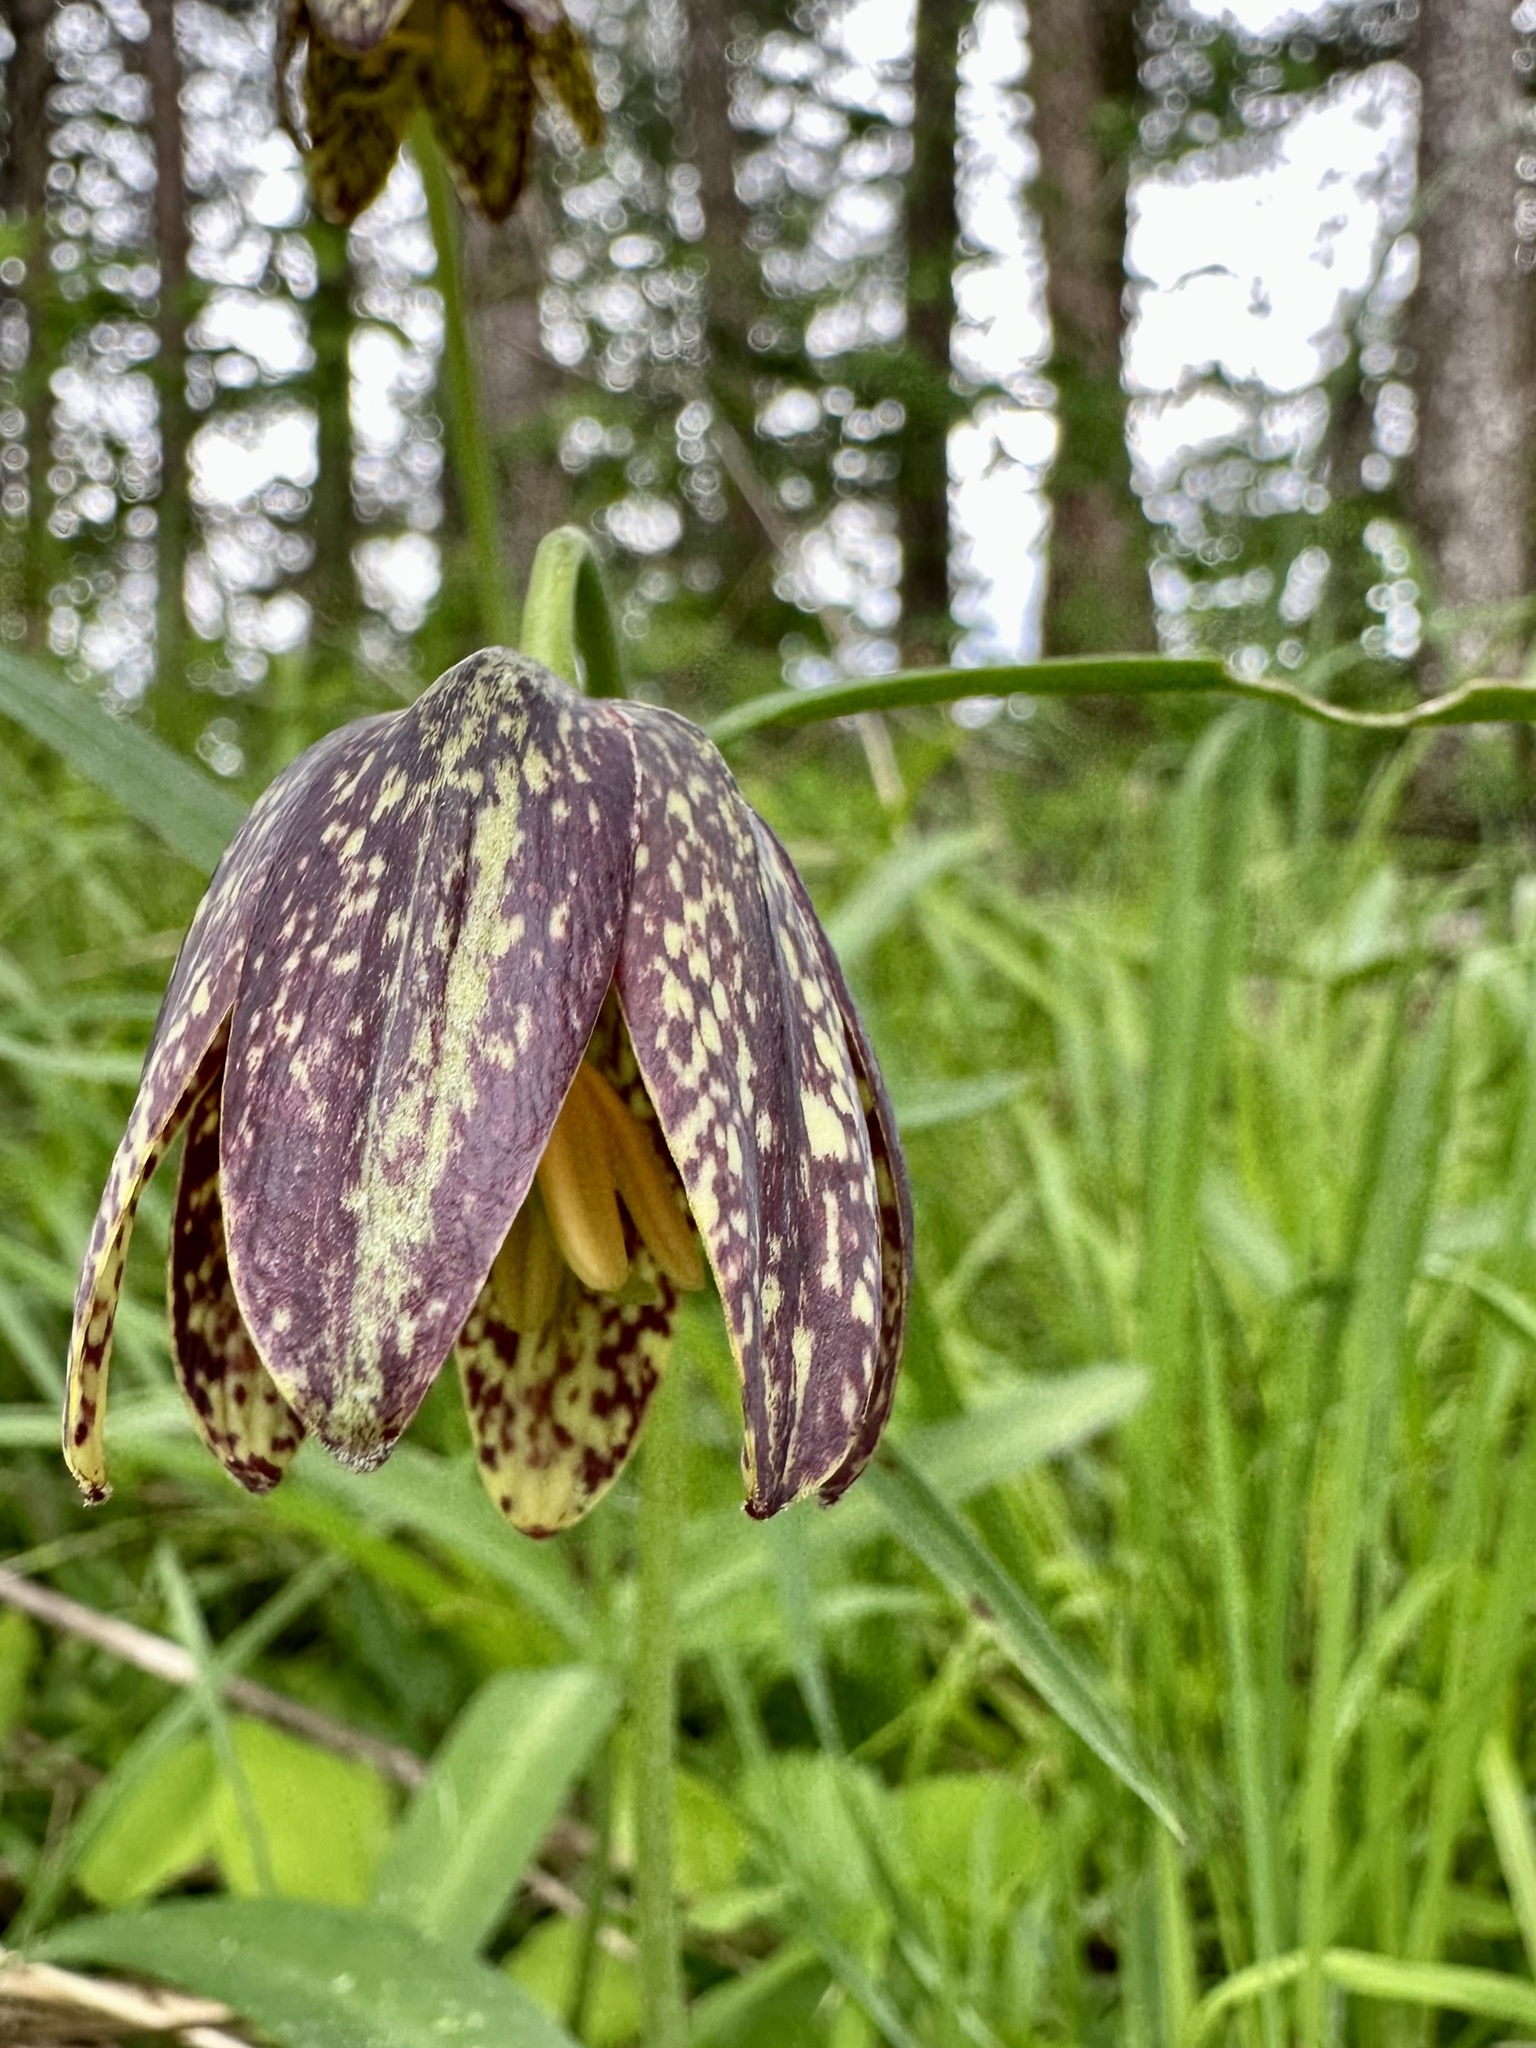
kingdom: Plantae
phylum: Tracheophyta
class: Liliopsida
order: Liliales
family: Liliaceae
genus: Fritillaria
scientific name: Fritillaria affinis
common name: Ojai fritillary
